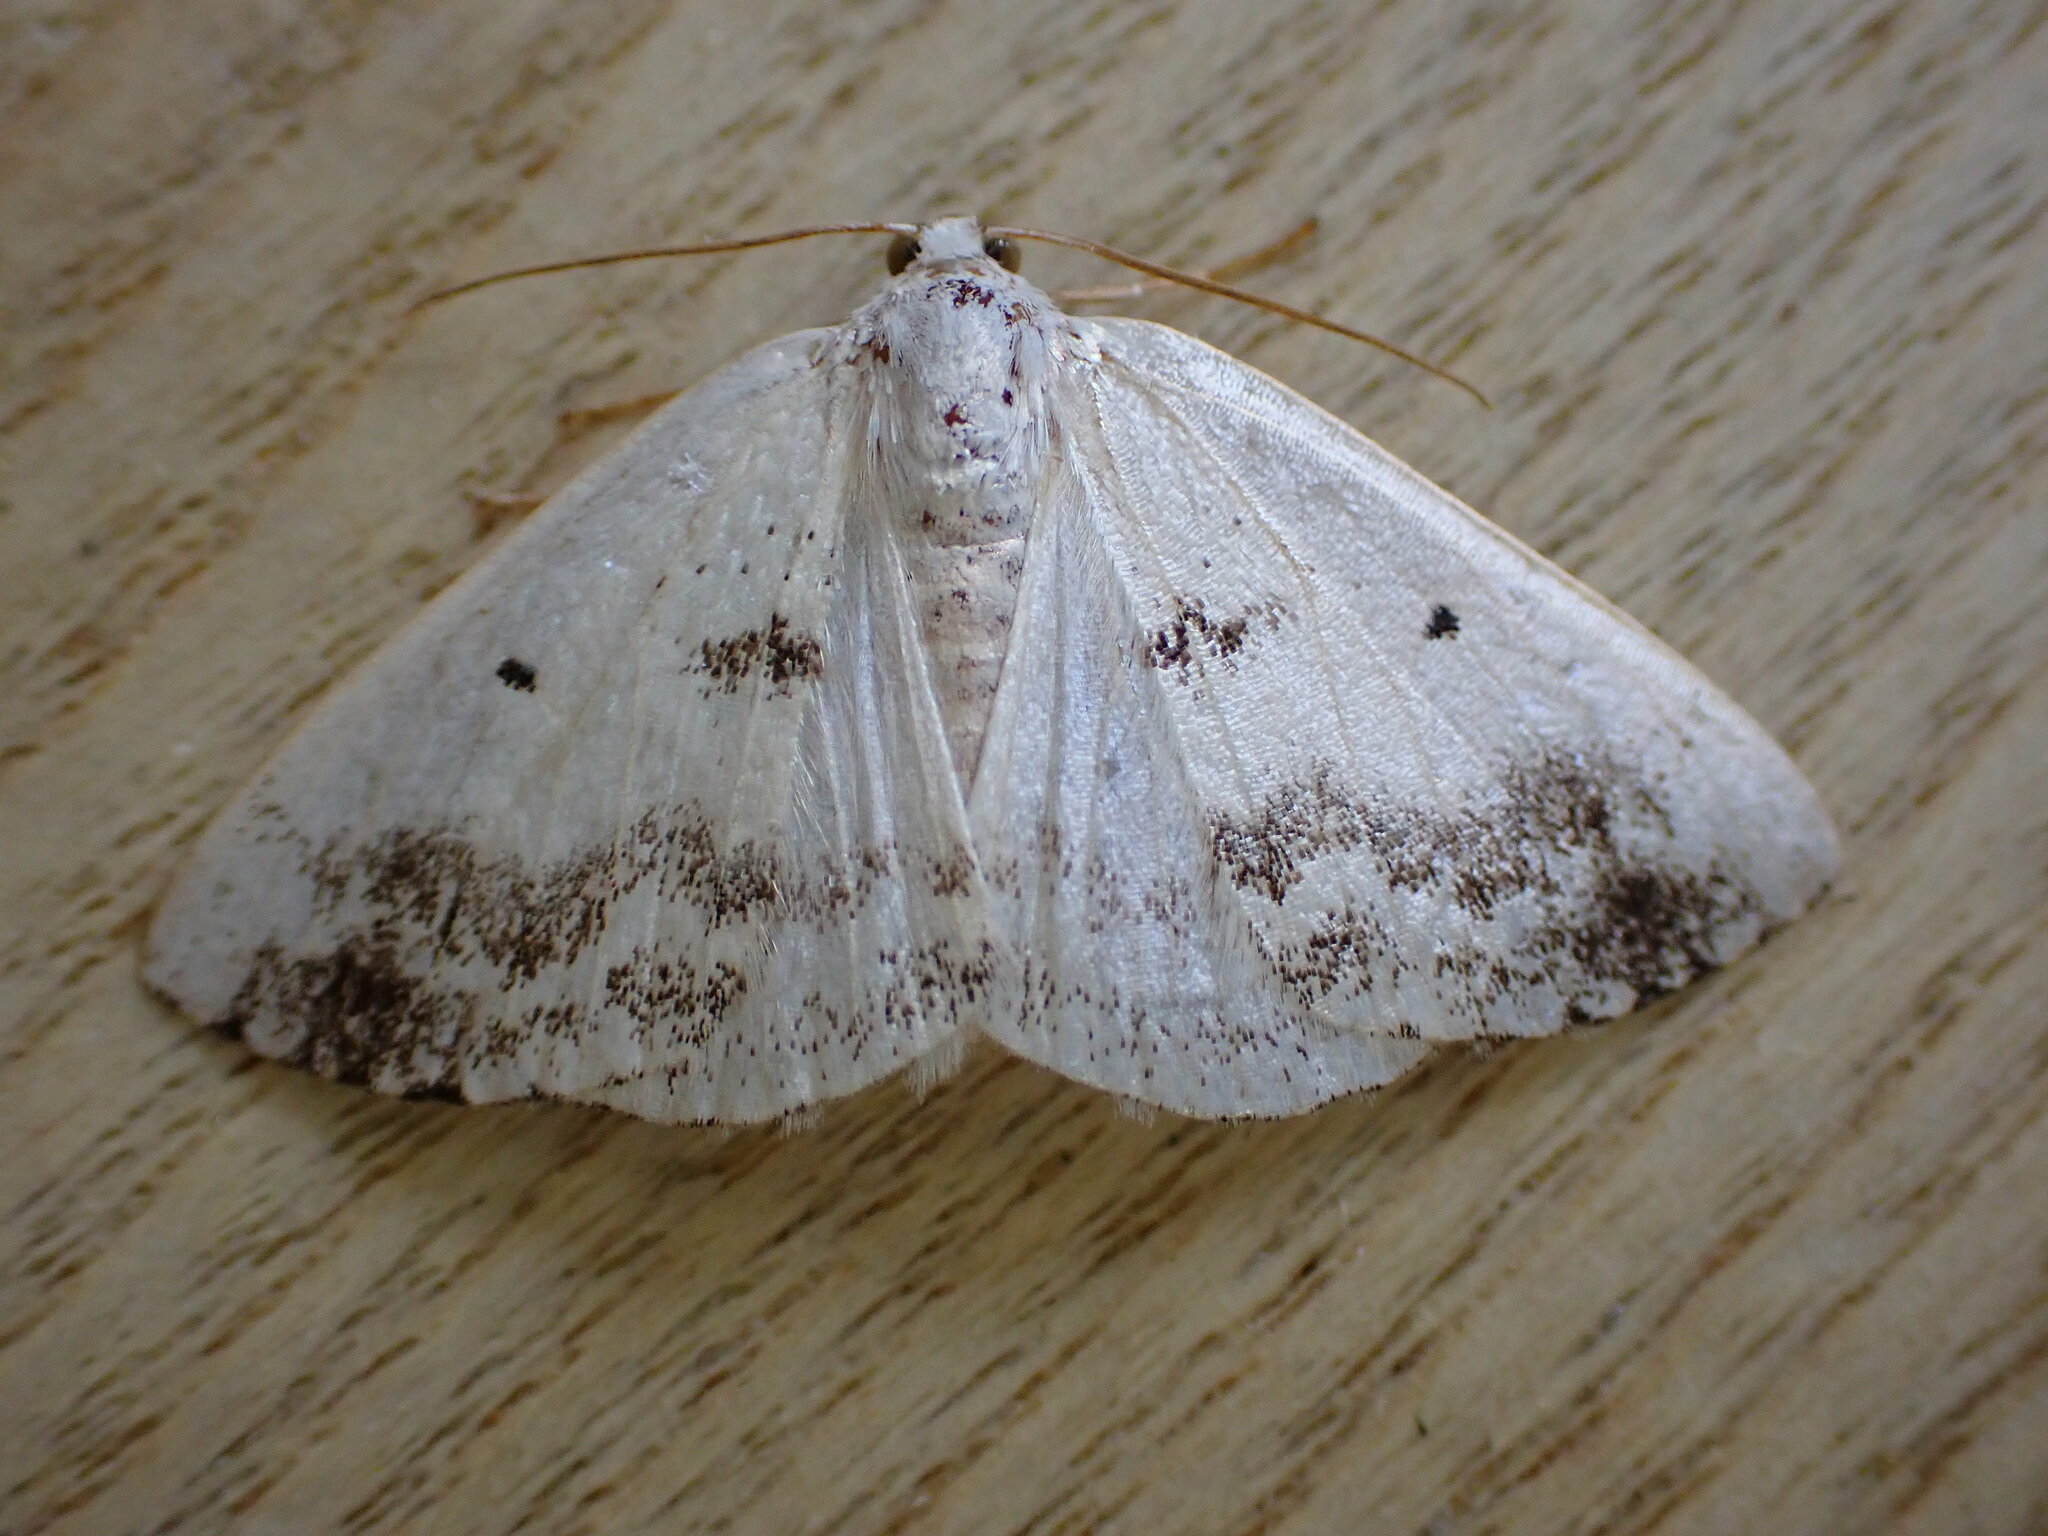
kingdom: Animalia
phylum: Arthropoda
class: Insecta
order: Lepidoptera
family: Geometridae
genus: Lomographa
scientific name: Lomographa temerata
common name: Clouded silver
